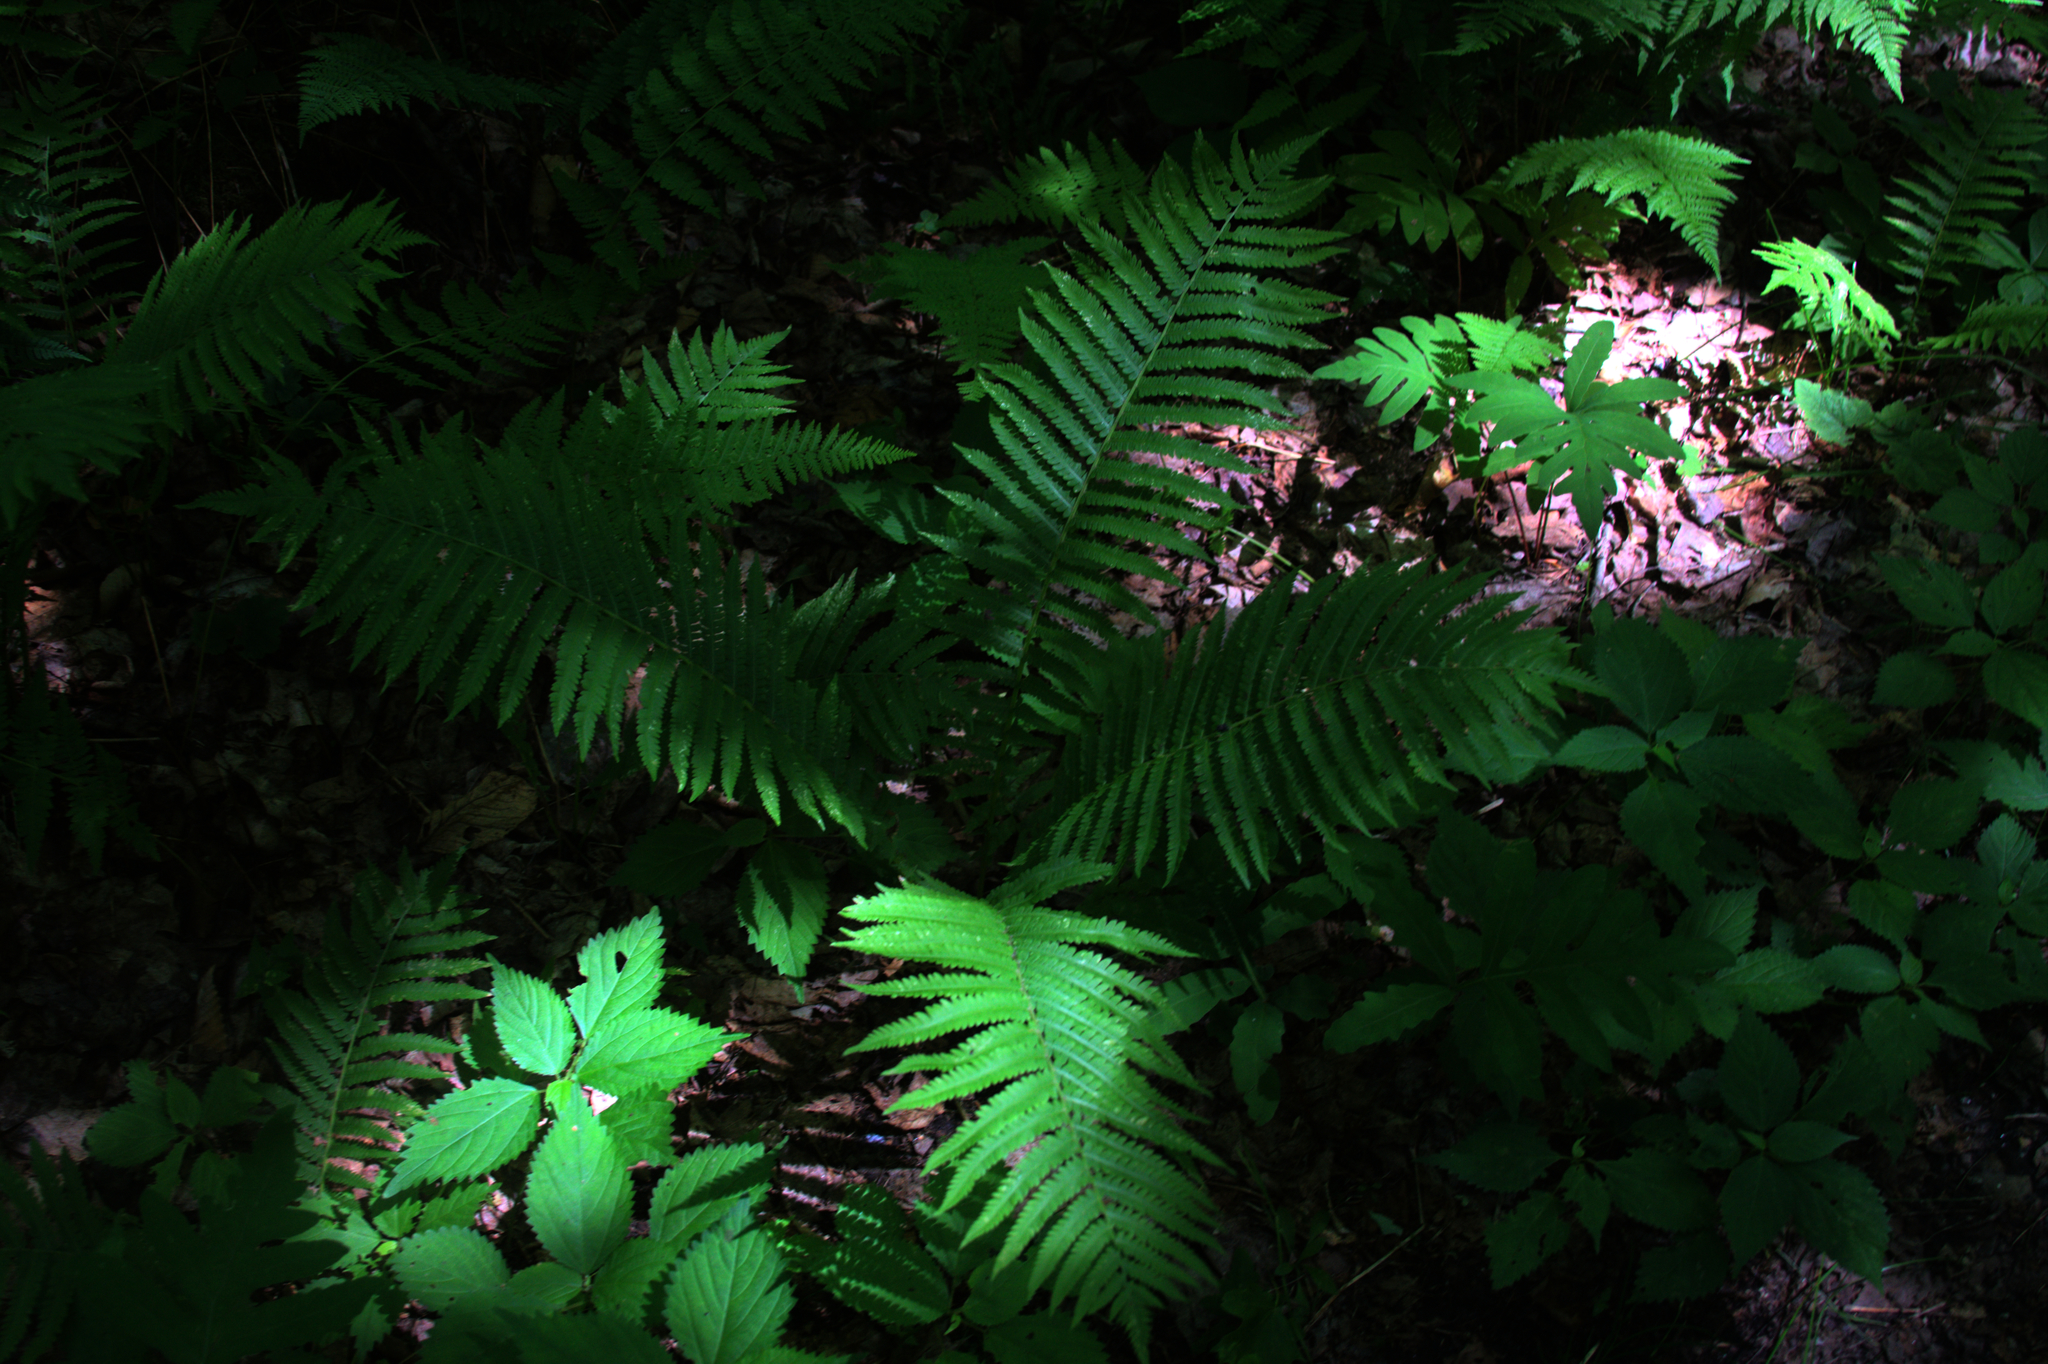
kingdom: Plantae
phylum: Tracheophyta
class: Polypodiopsida
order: Polypodiales
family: Onocleaceae
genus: Matteuccia
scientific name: Matteuccia struthiopteris
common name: Ostrich fern
